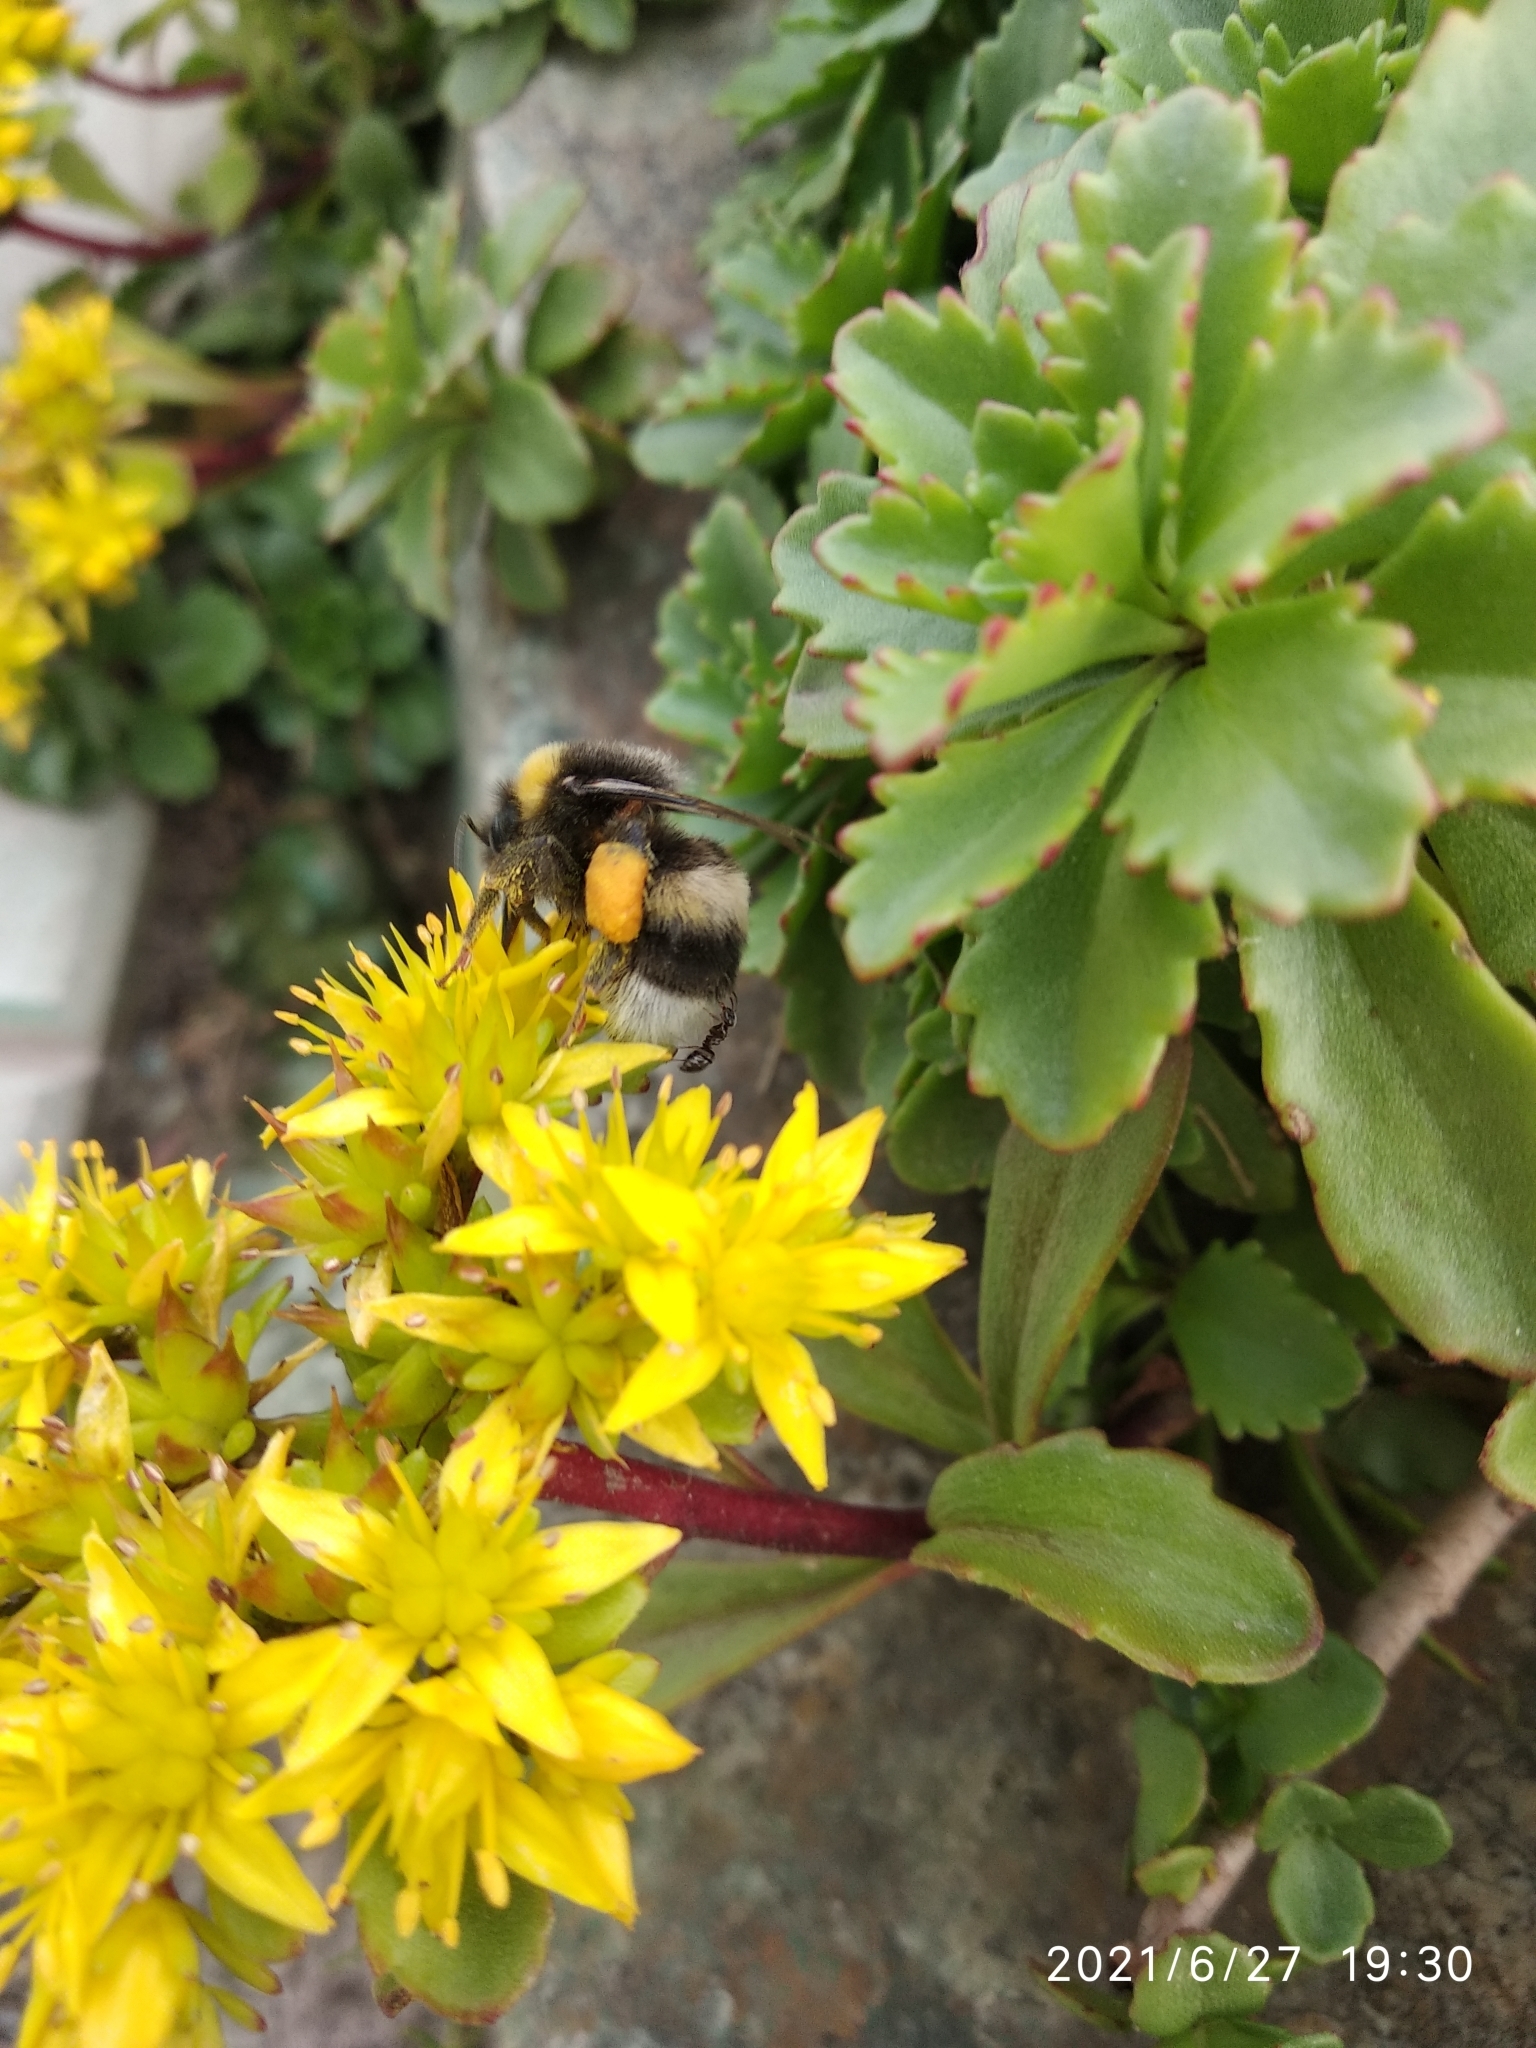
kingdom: Animalia
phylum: Arthropoda
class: Insecta
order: Hymenoptera
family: Apidae
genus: Bombus
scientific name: Bombus lucorum
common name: White-tailed bumblebee
